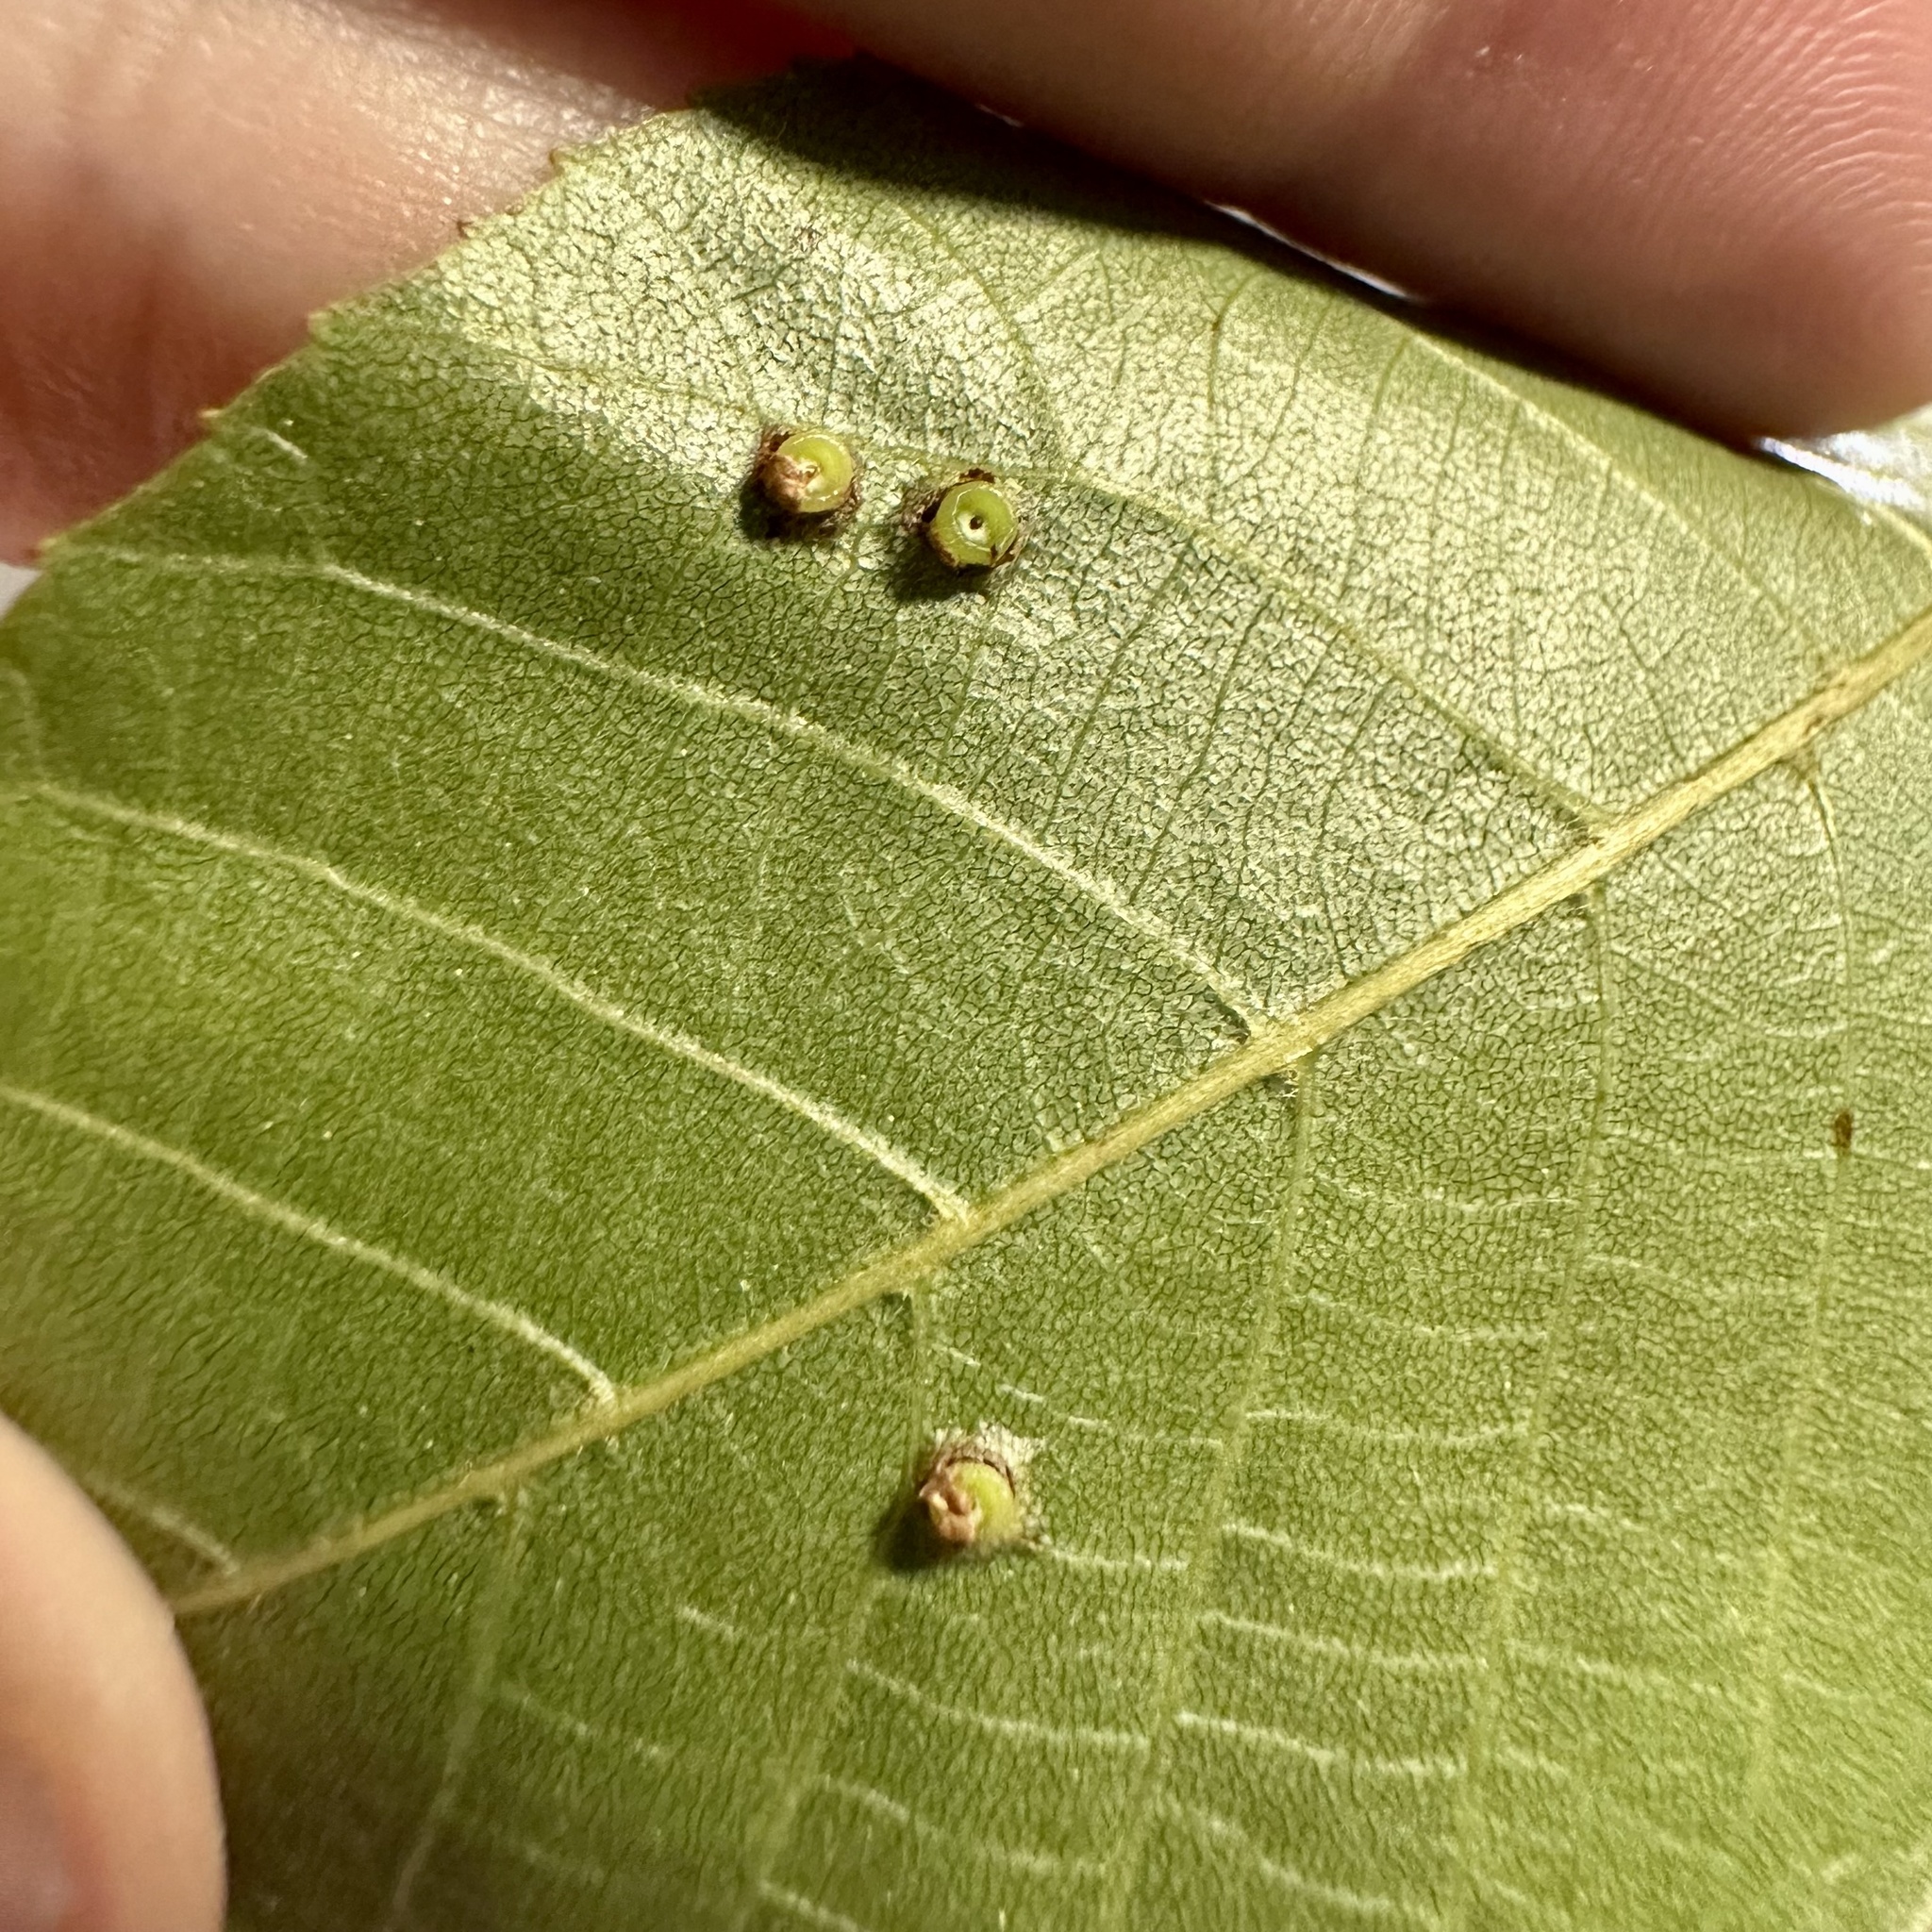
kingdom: Animalia
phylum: Arthropoda
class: Insecta
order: Diptera
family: Cecidomyiidae
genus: Caryomyia
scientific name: Caryomyia levicrustum
